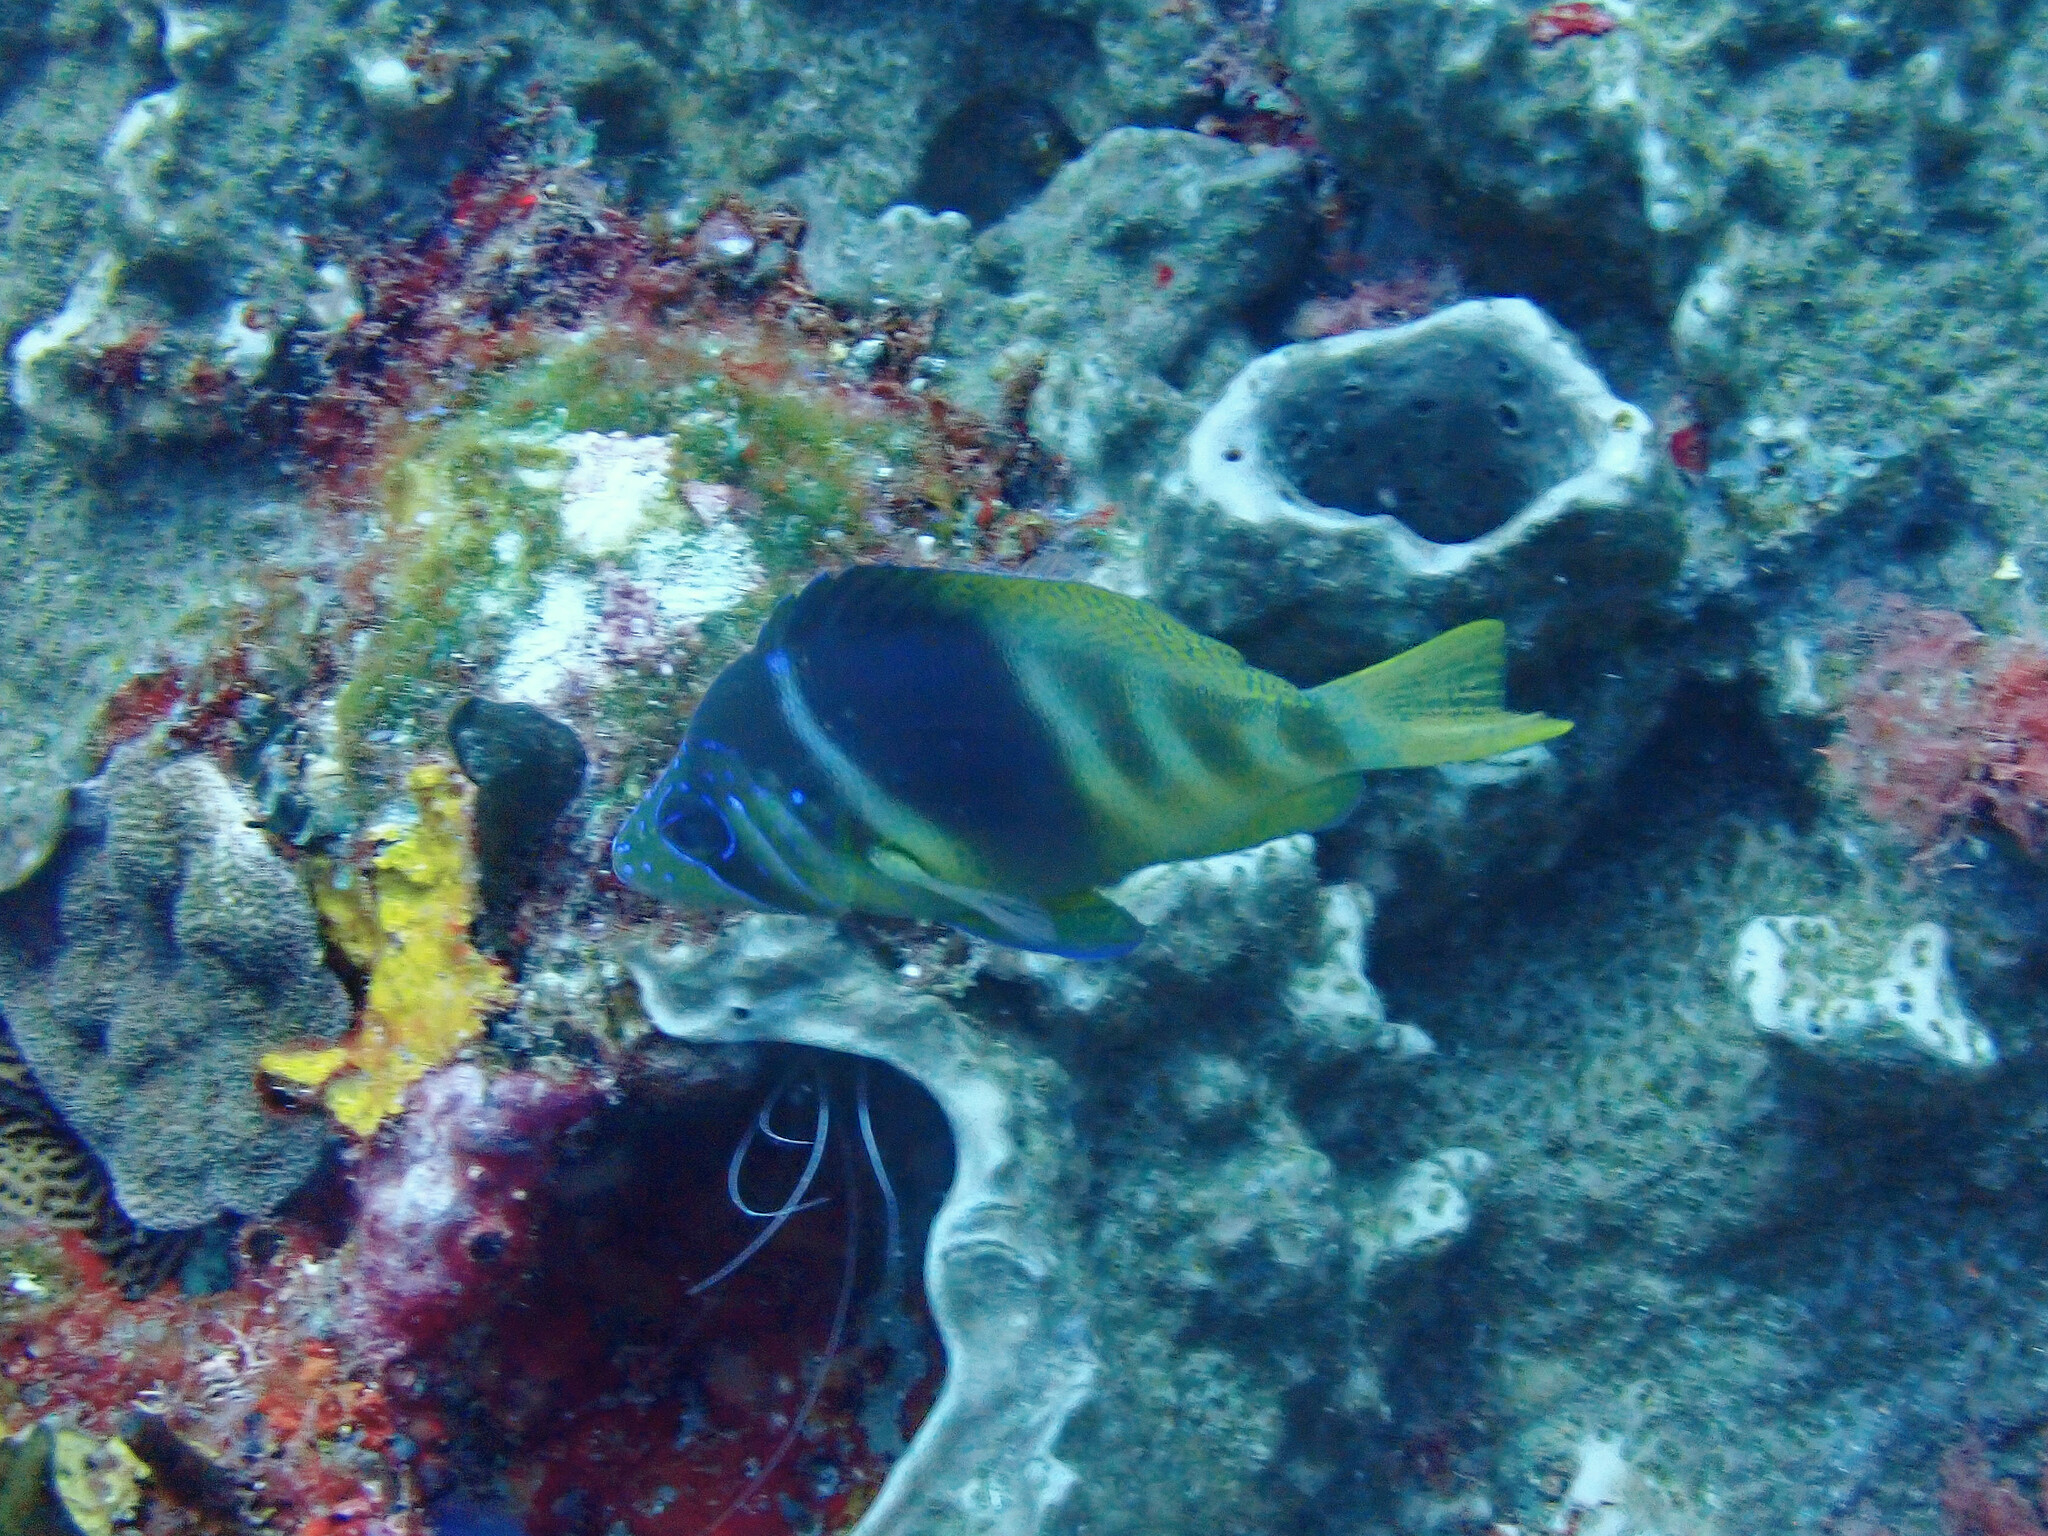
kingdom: Animalia
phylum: Chordata
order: Perciformes
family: Serranidae
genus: Hypoplectrus
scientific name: Hypoplectrus puella
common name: Barred hamlet
